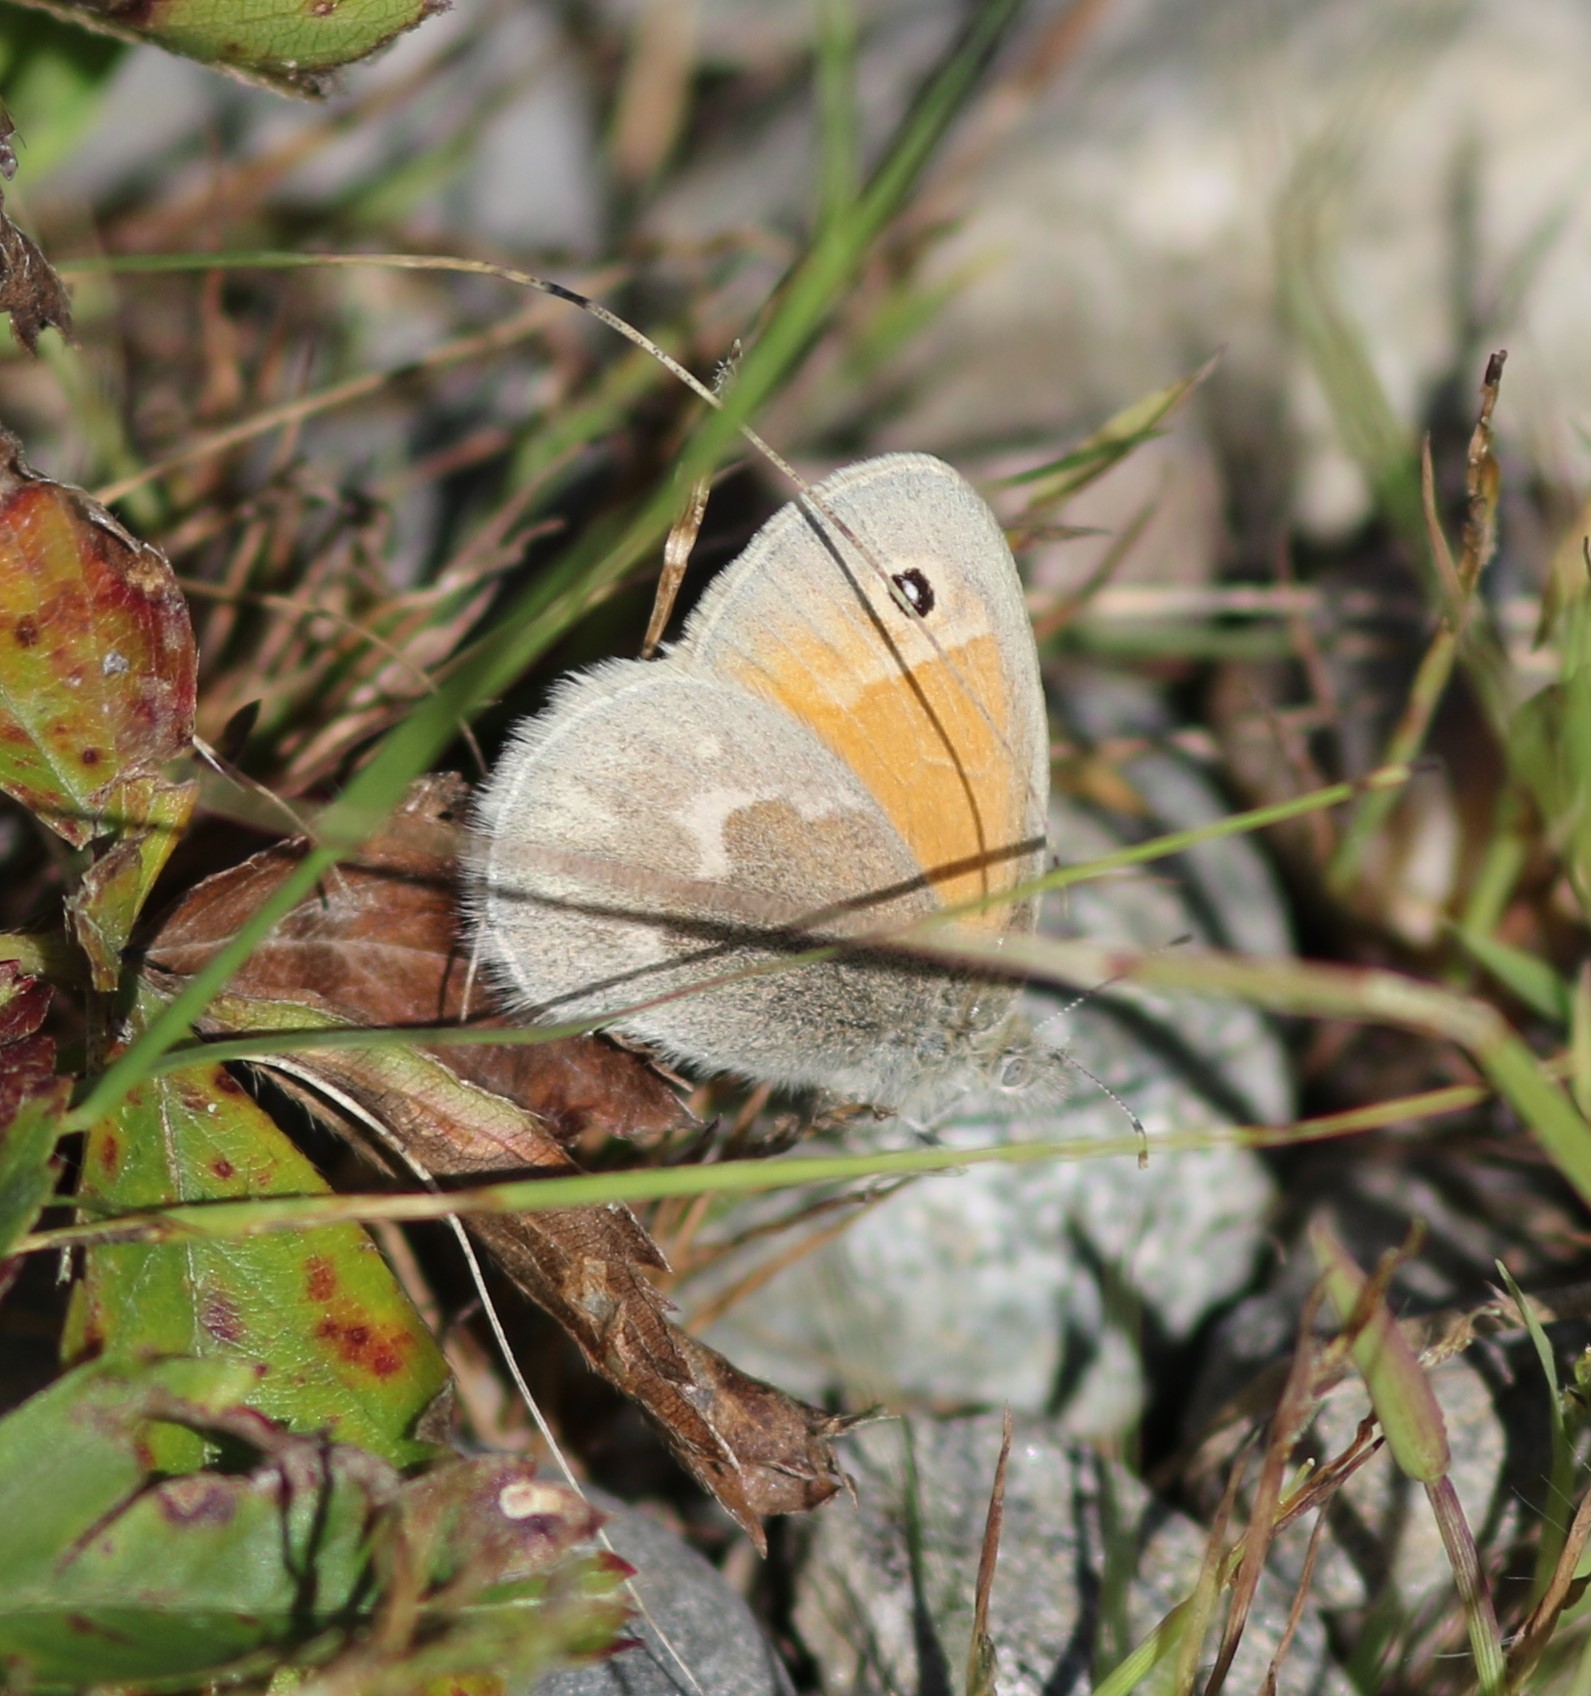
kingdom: Animalia
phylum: Arthropoda
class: Insecta
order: Lepidoptera
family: Nymphalidae
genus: Coenonympha
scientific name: Coenonympha california
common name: Common ringlet
